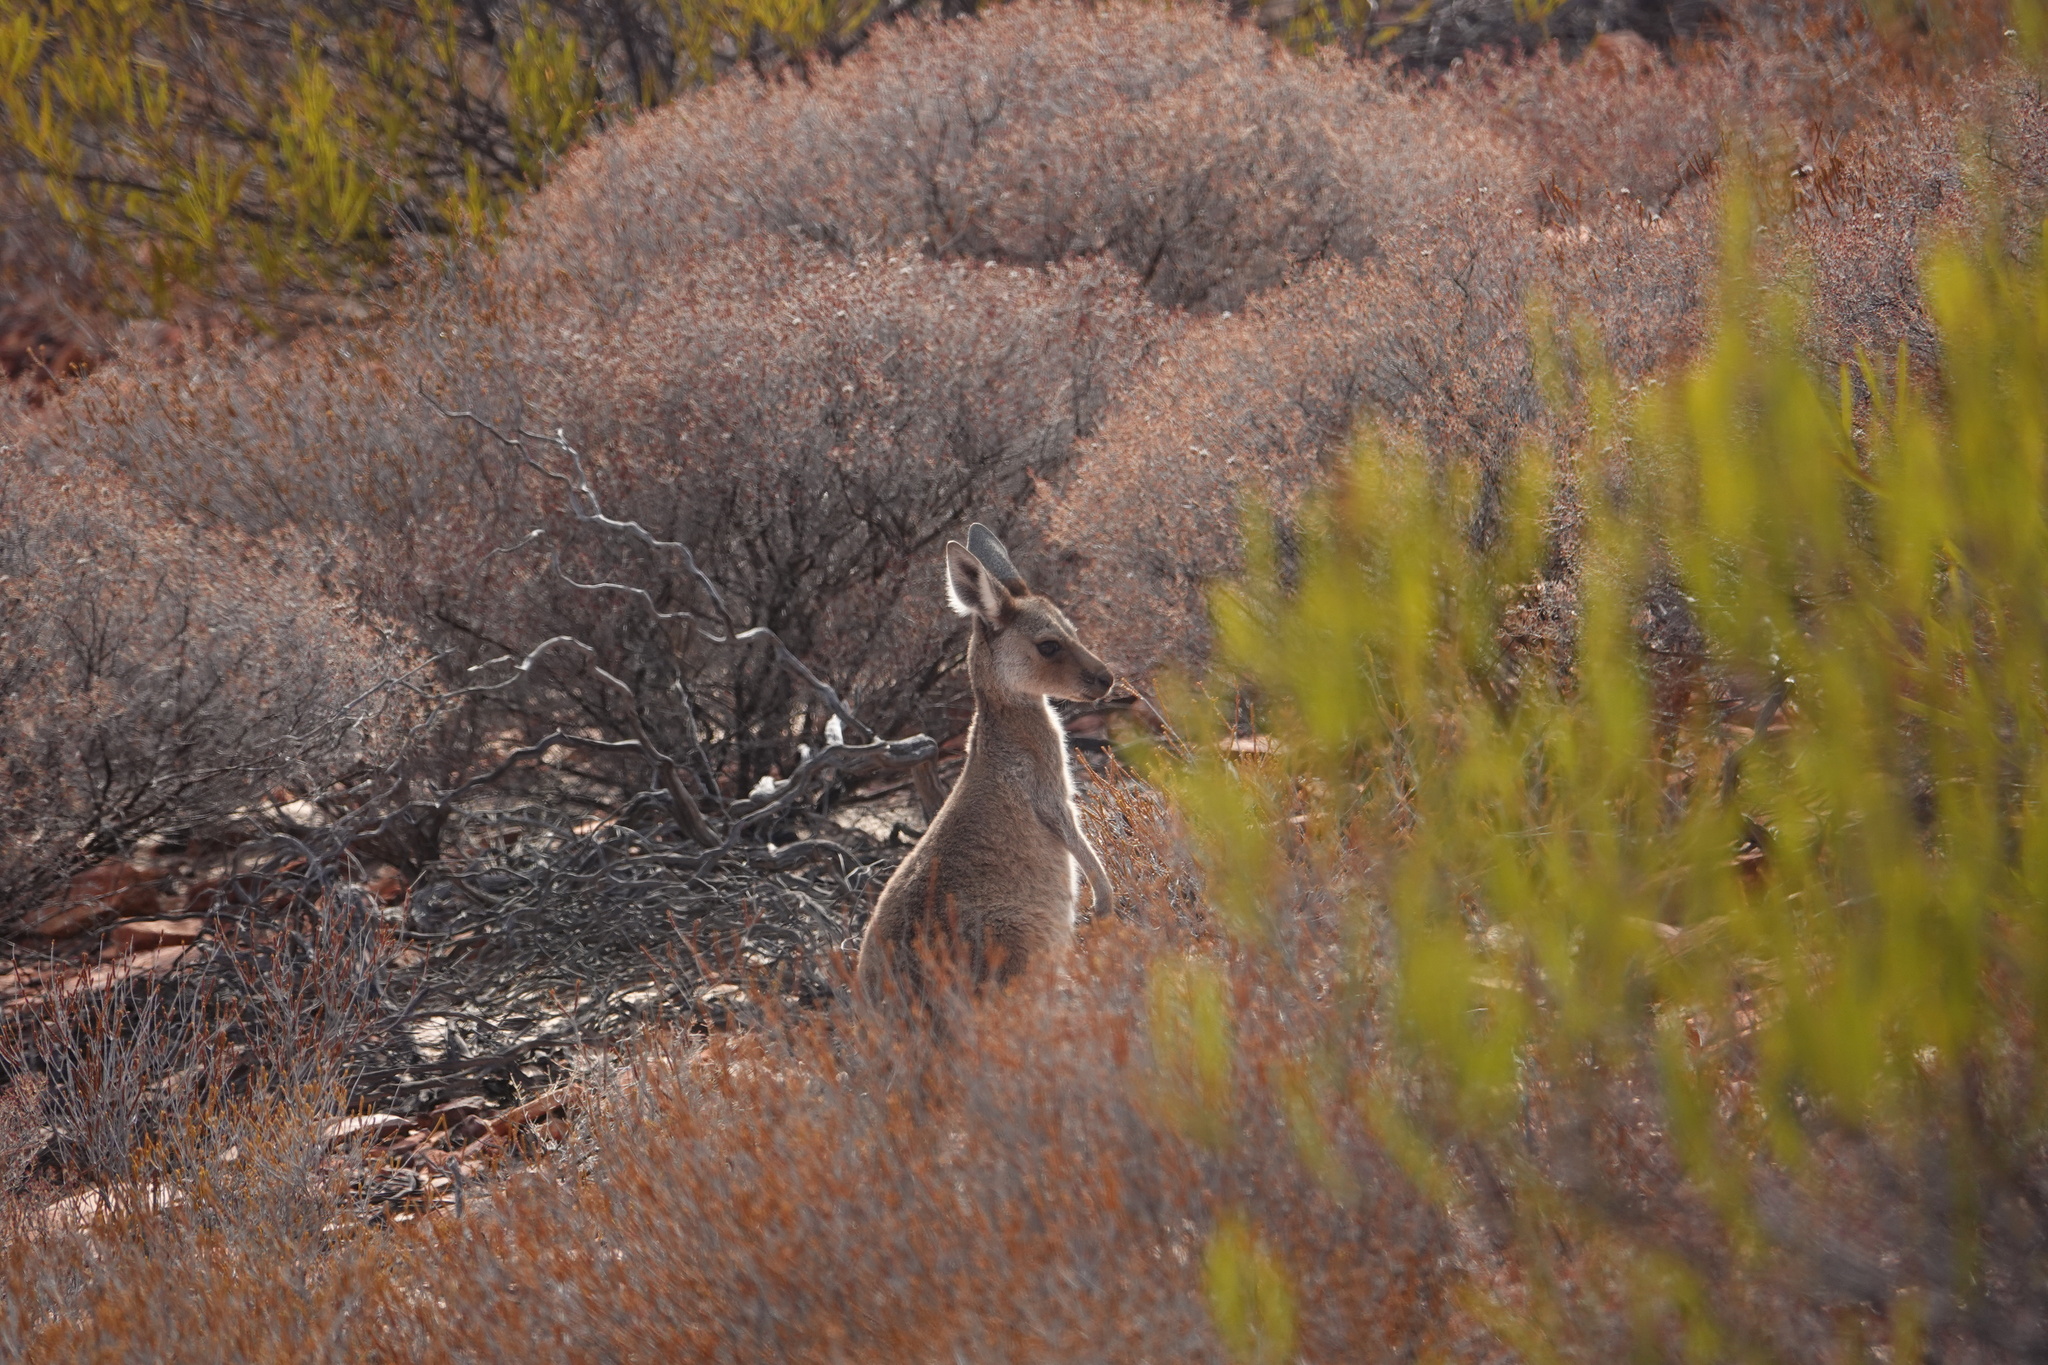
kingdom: Animalia
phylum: Chordata
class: Mammalia
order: Diprotodontia
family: Macropodidae
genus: Macropus
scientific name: Macropus fuliginosus
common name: Western grey kangaroo
